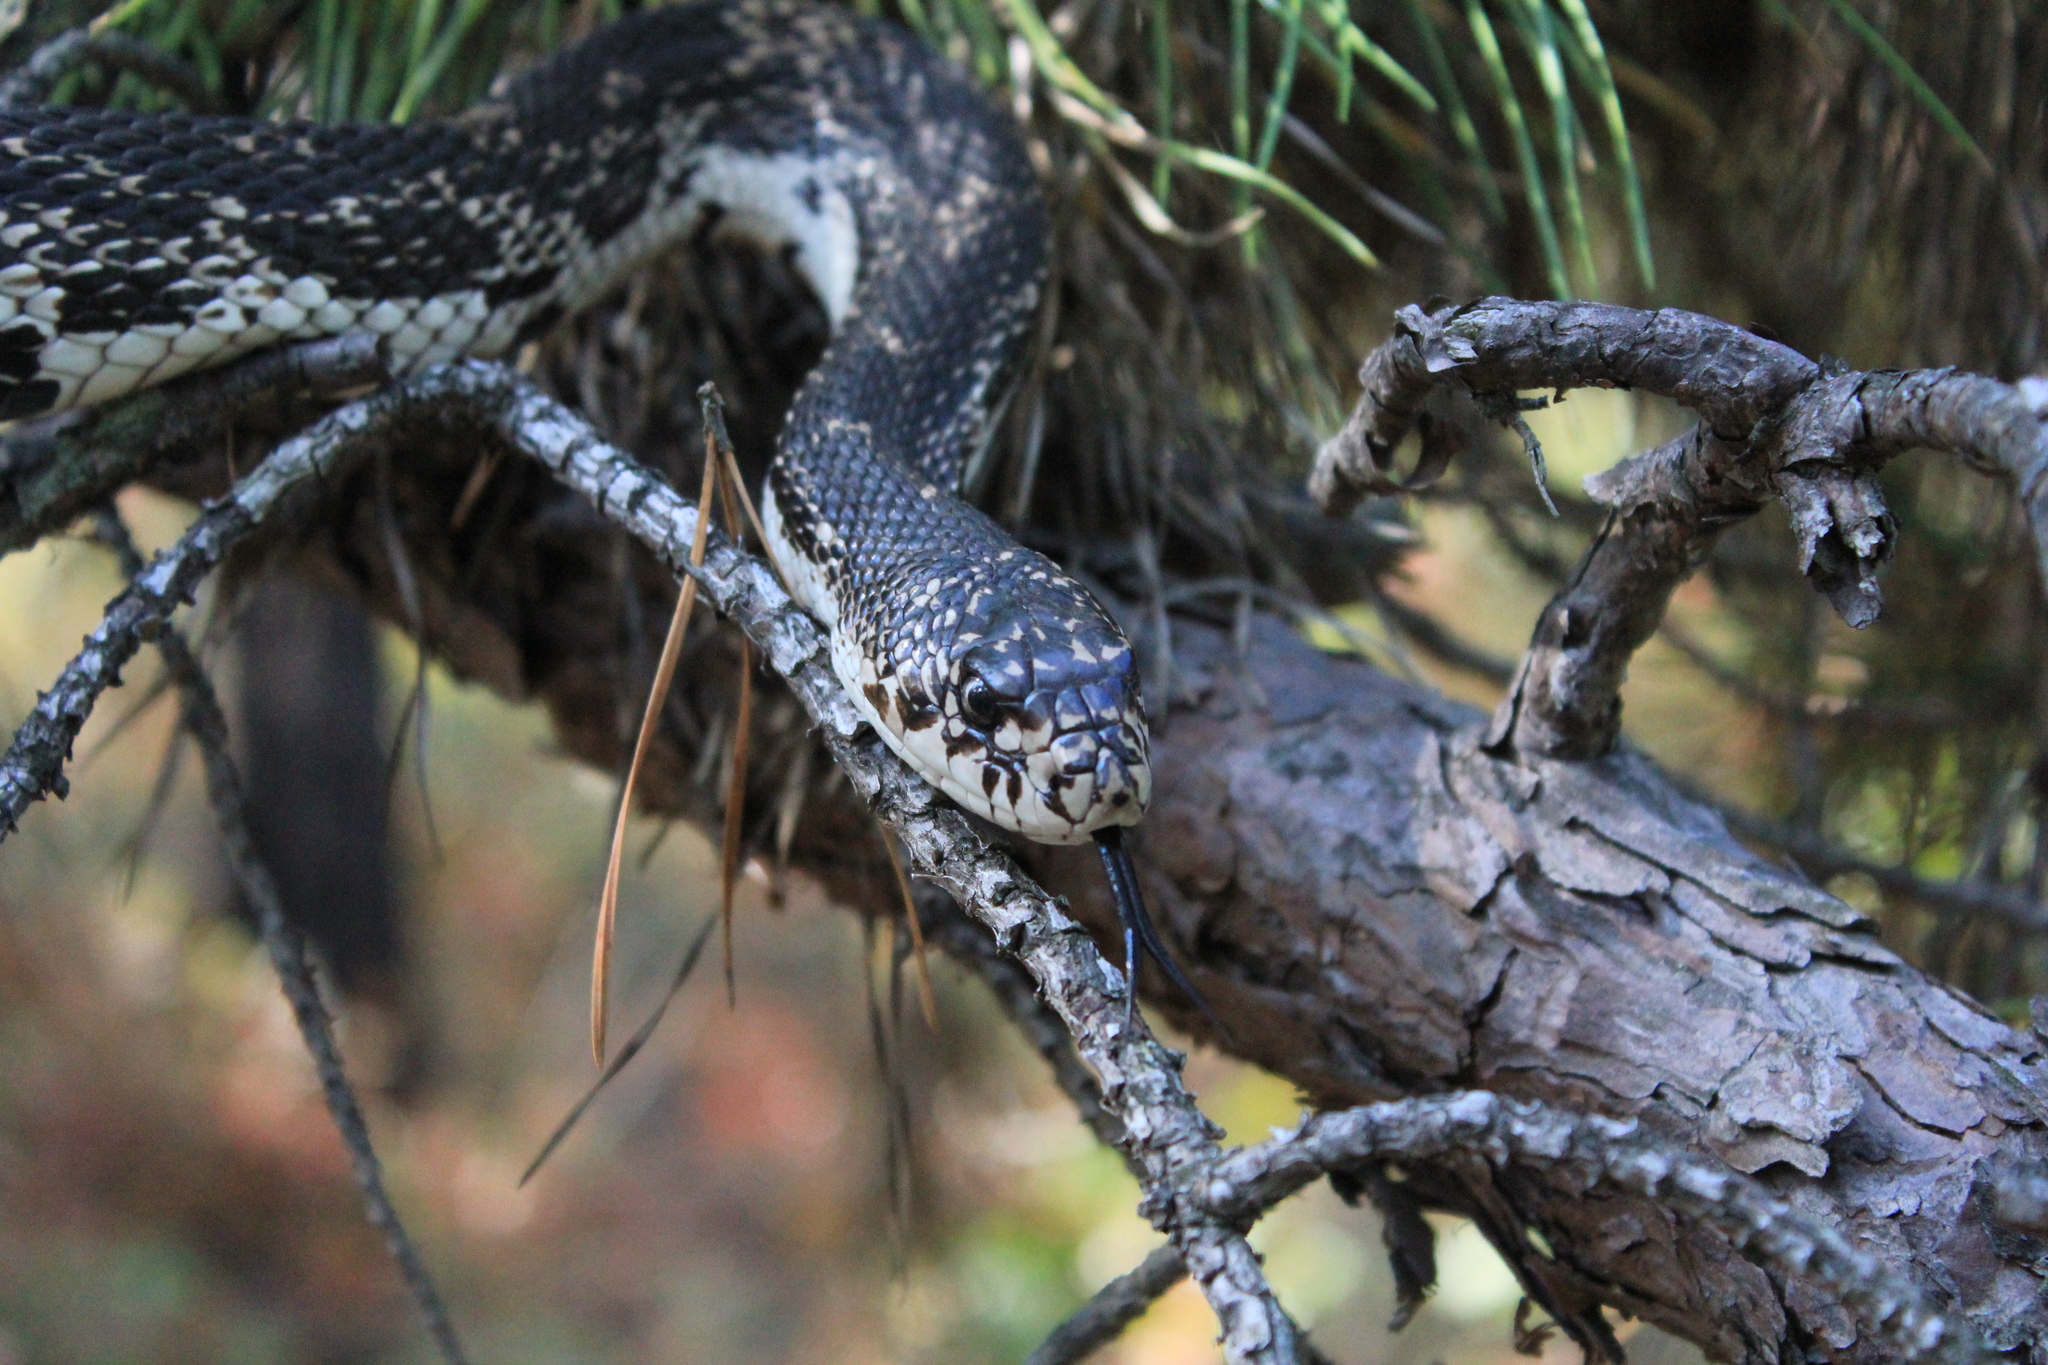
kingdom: Animalia
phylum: Chordata
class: Squamata
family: Colubridae
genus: Pituophis
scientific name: Pituophis melanoleucus
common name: Pine snake
